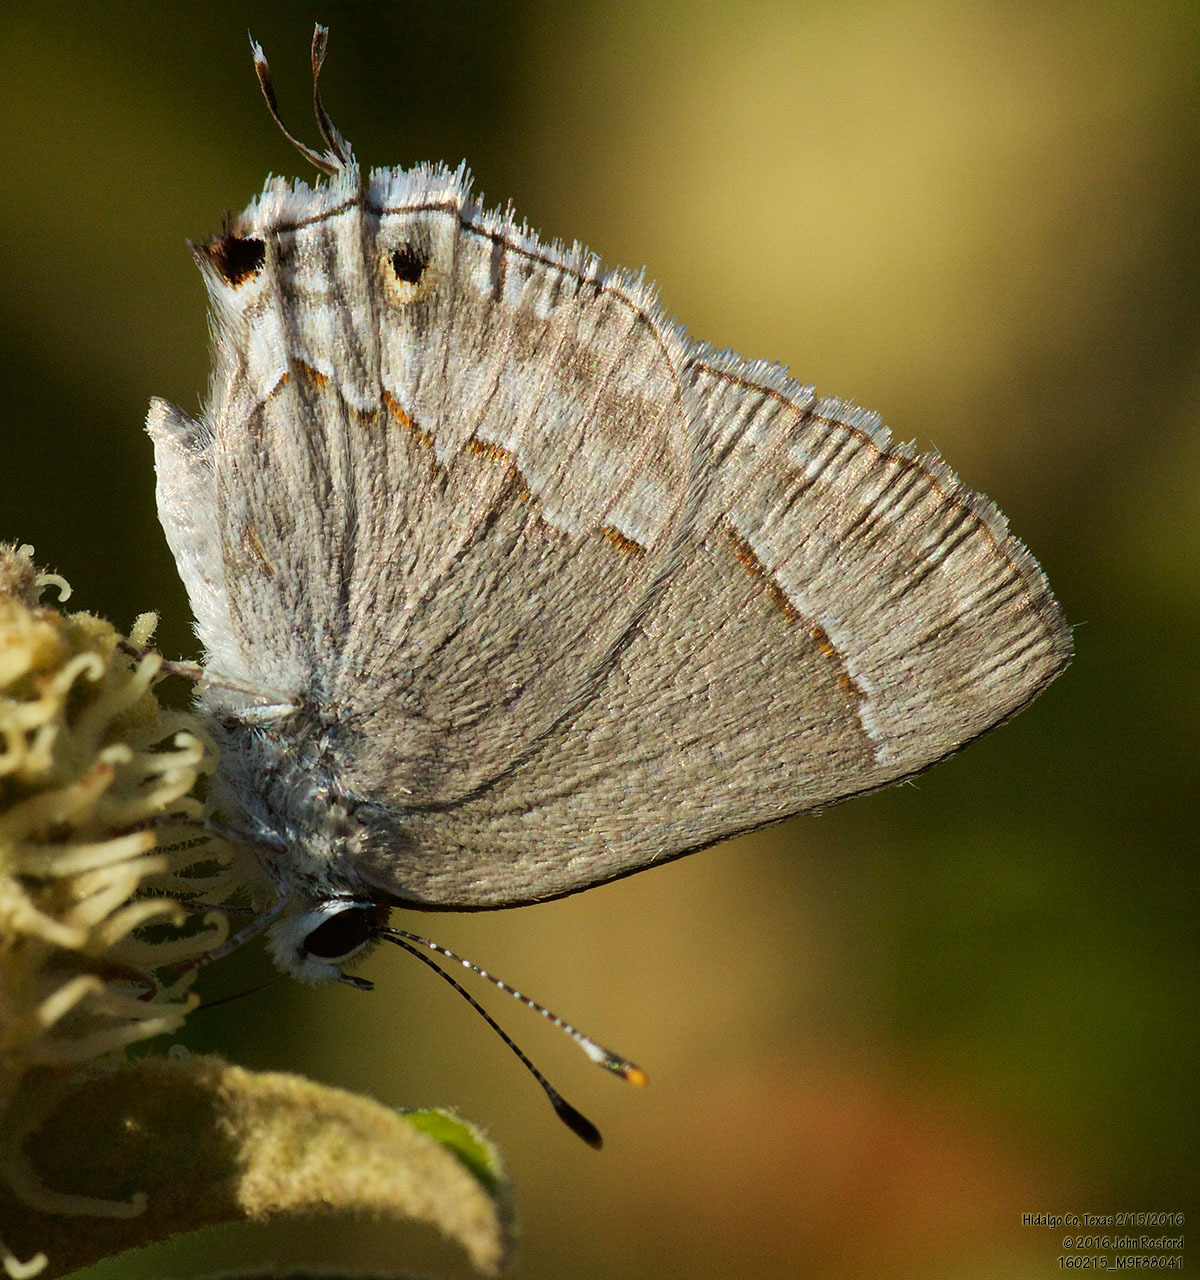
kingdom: Animalia
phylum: Arthropoda
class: Insecta
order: Lepidoptera
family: Lycaenidae
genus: Thecla
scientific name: Thecla bebrycia
